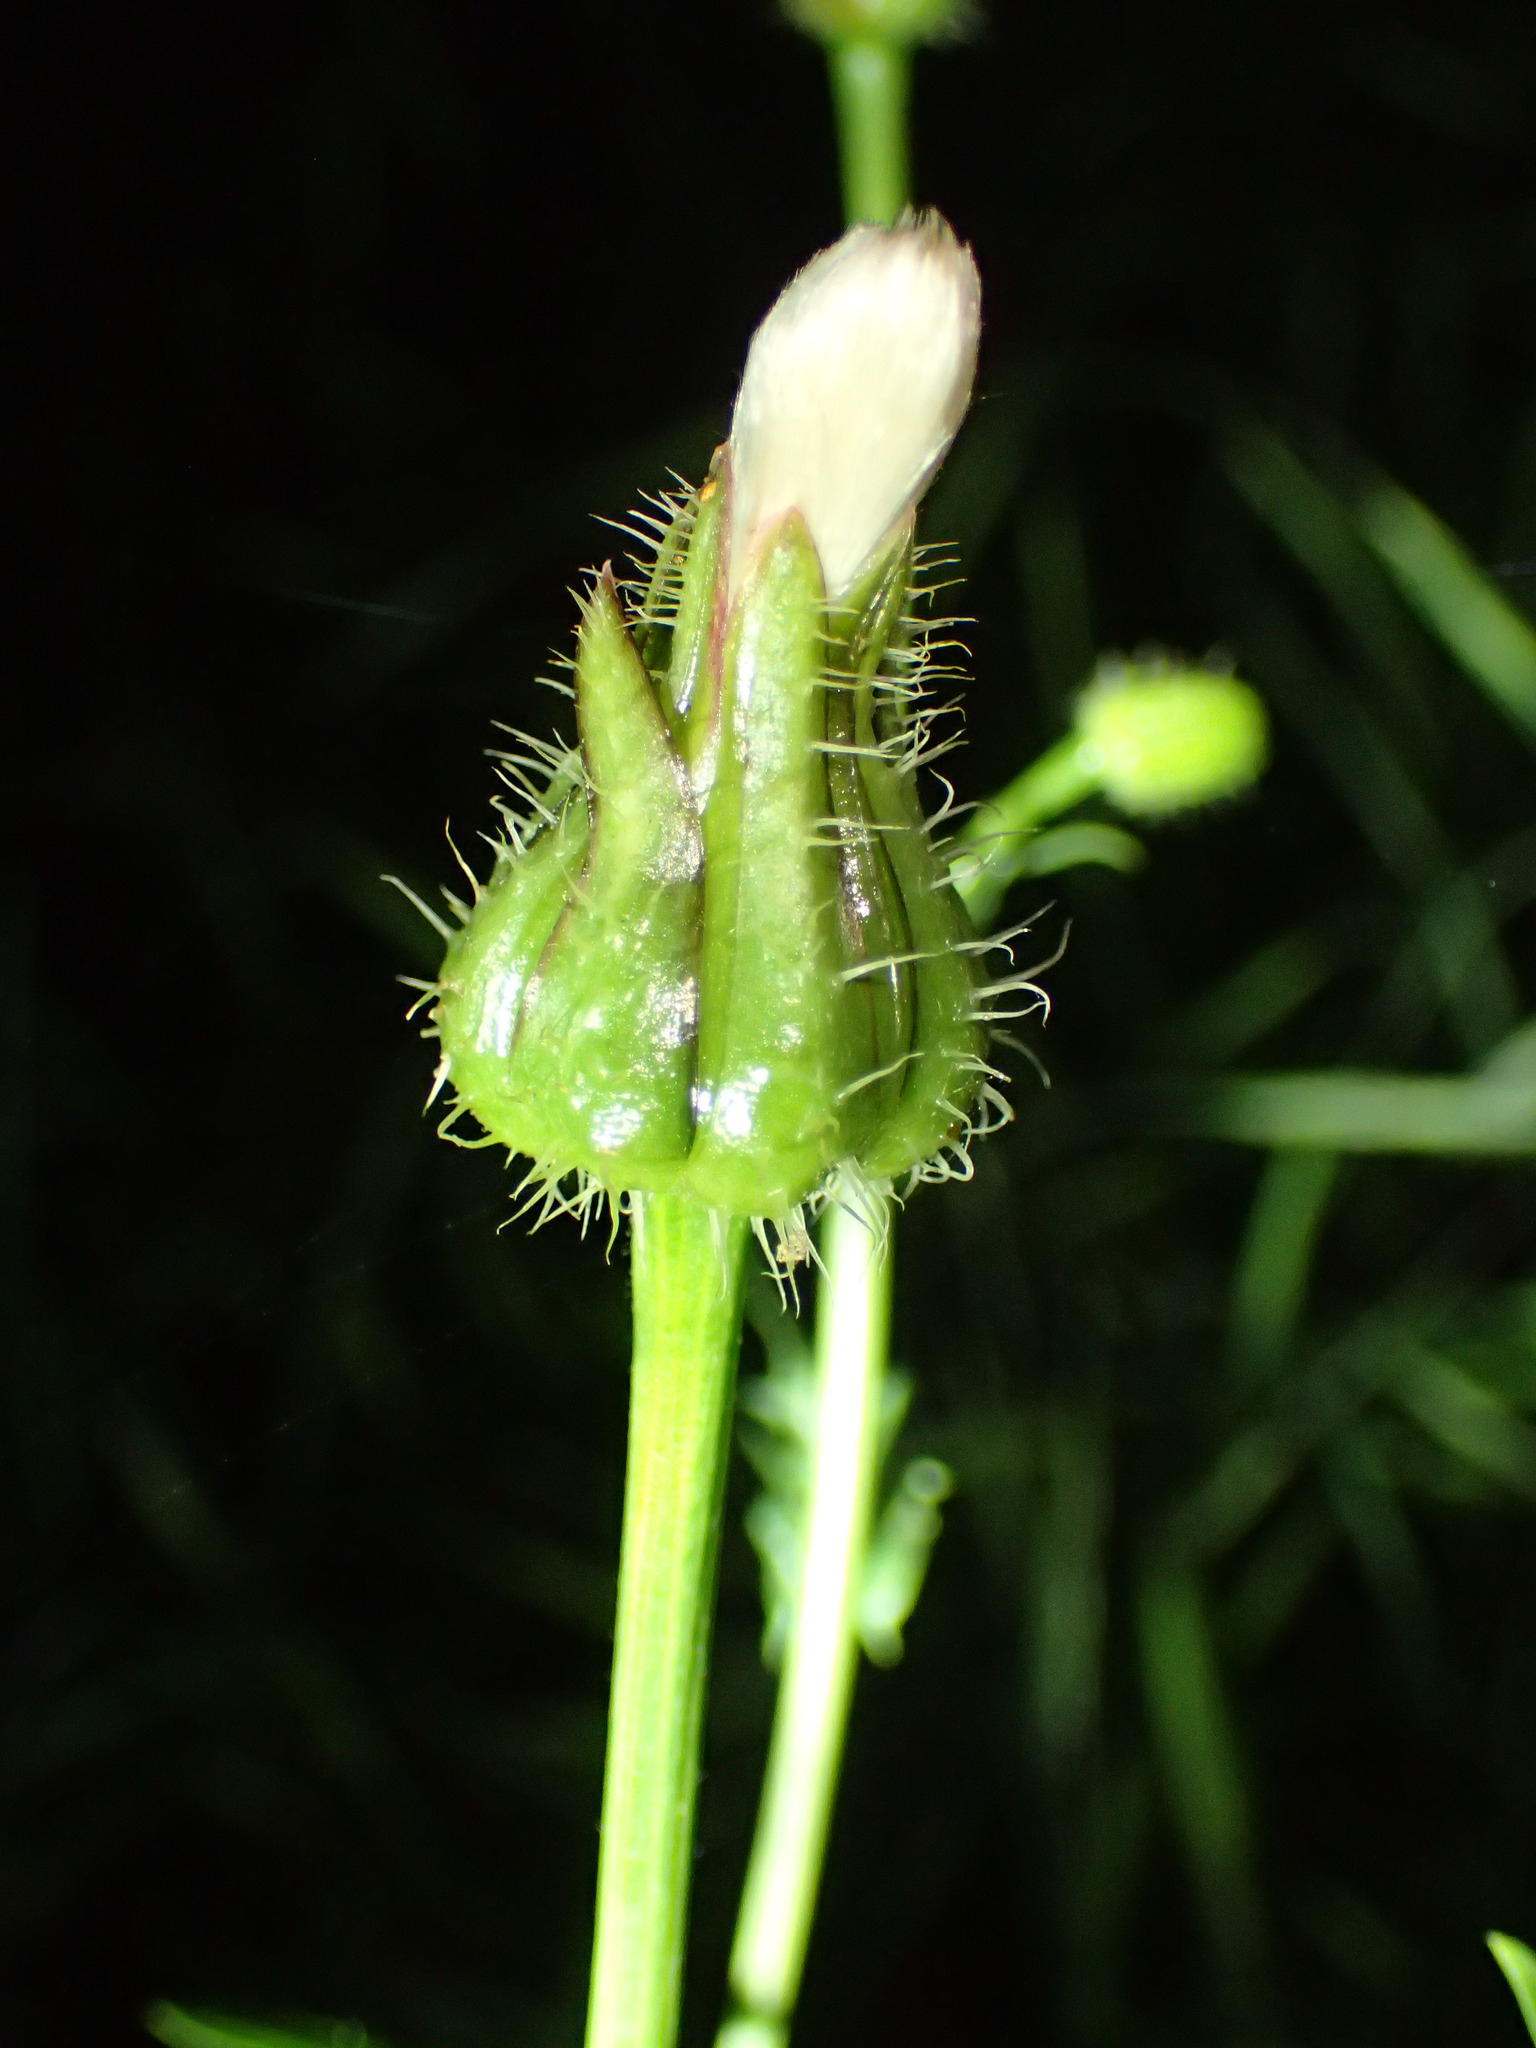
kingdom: Plantae
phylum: Tracheophyta
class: Magnoliopsida
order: Asterales
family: Asteraceae
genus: Urospermum
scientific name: Urospermum picroides
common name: False hawkbit
